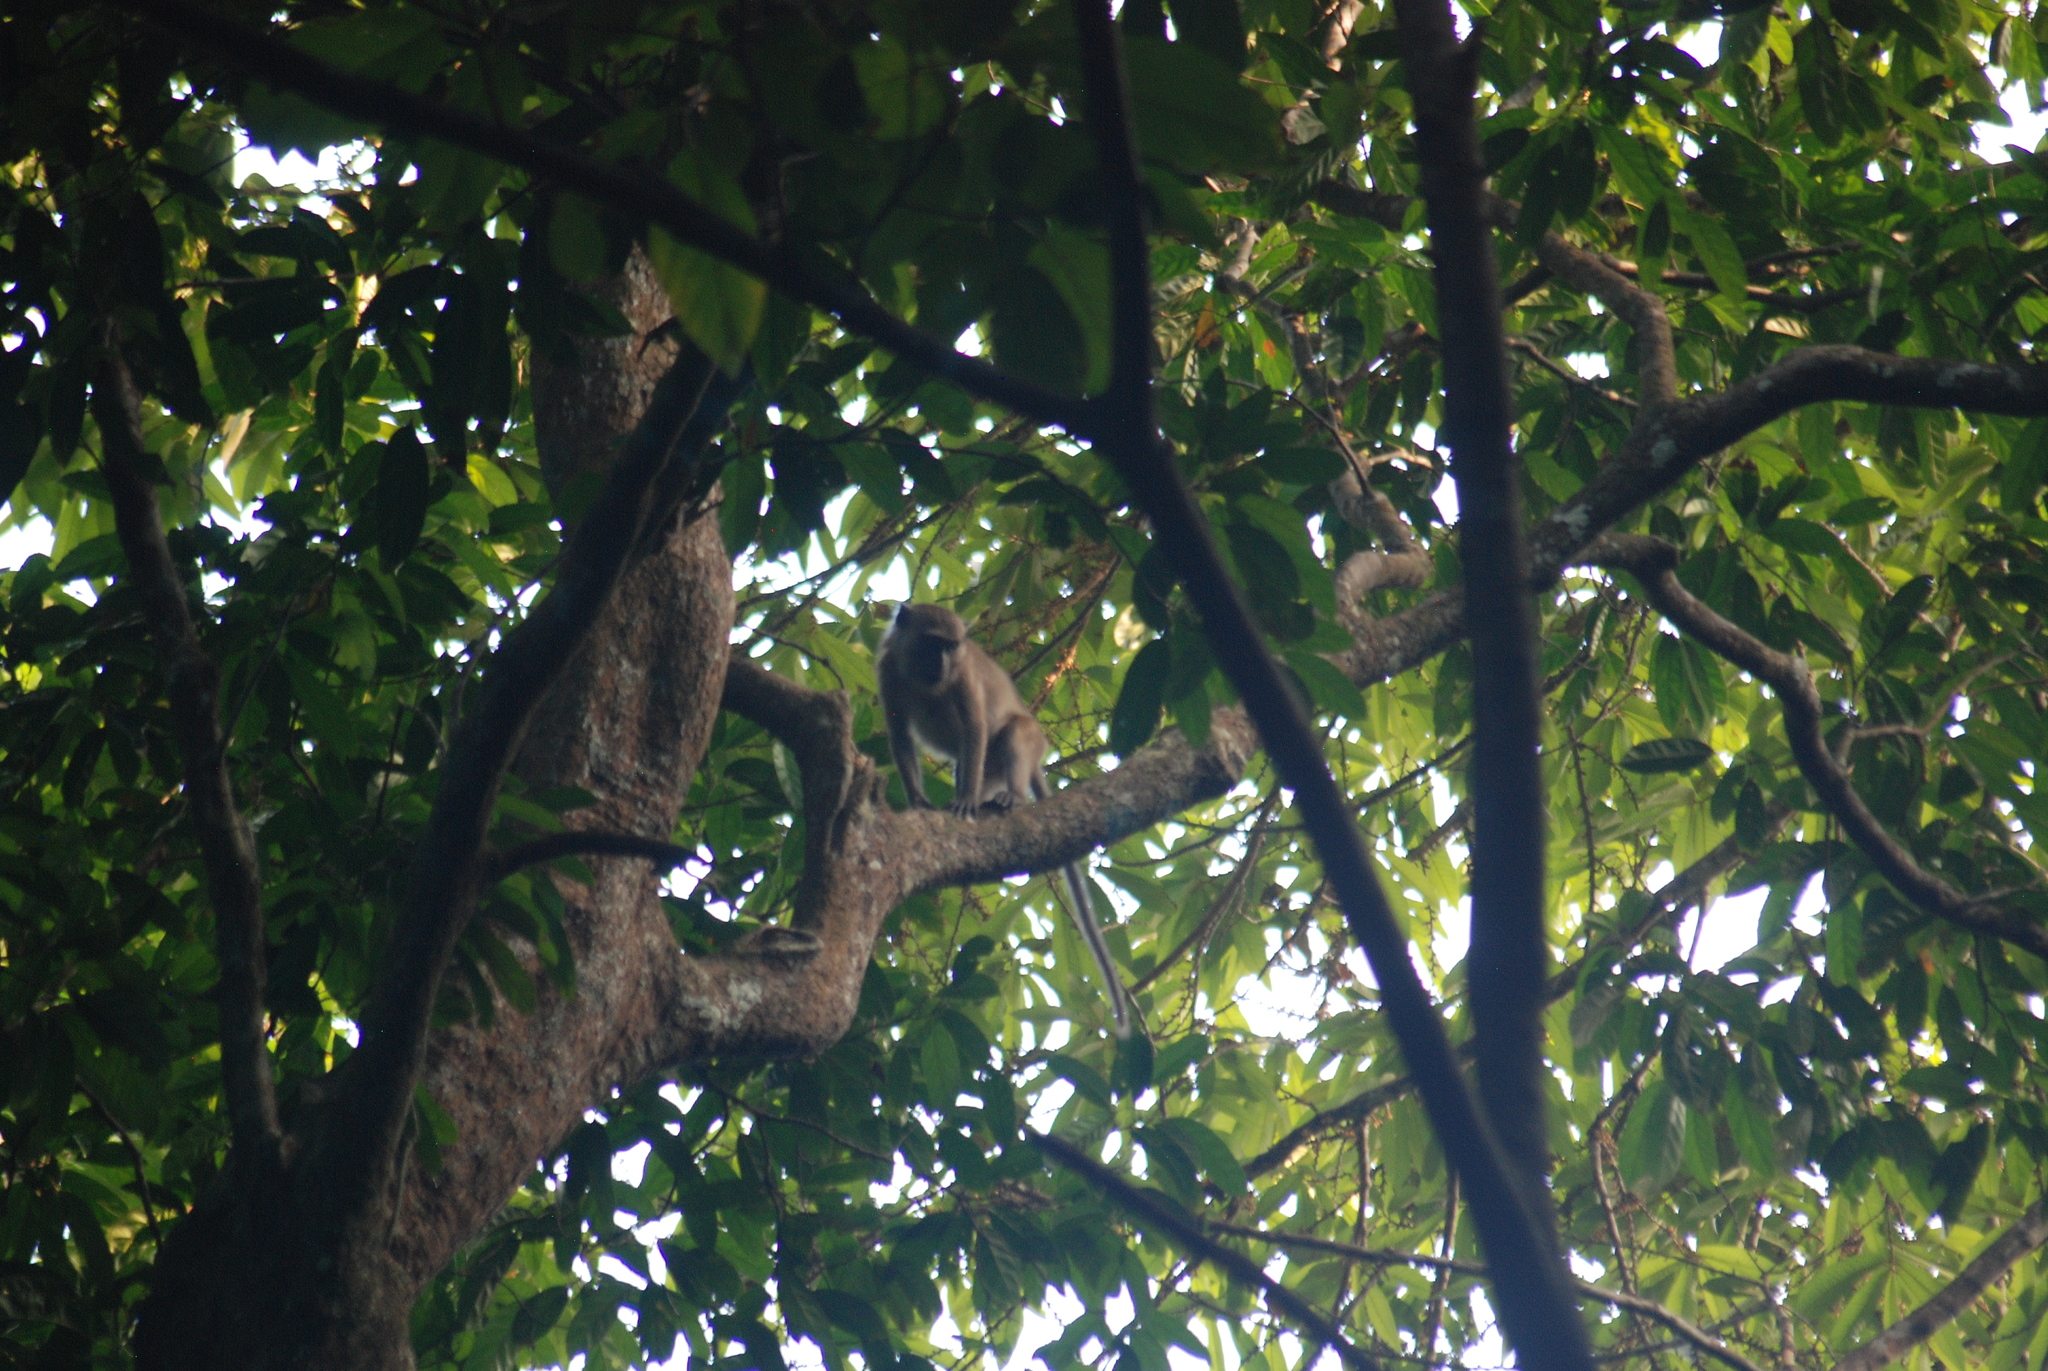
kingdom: Animalia
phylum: Chordata
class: Mammalia
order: Primates
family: Cercopithecidae
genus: Macaca
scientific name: Macaca fascicularis
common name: Crab-eating macaque
